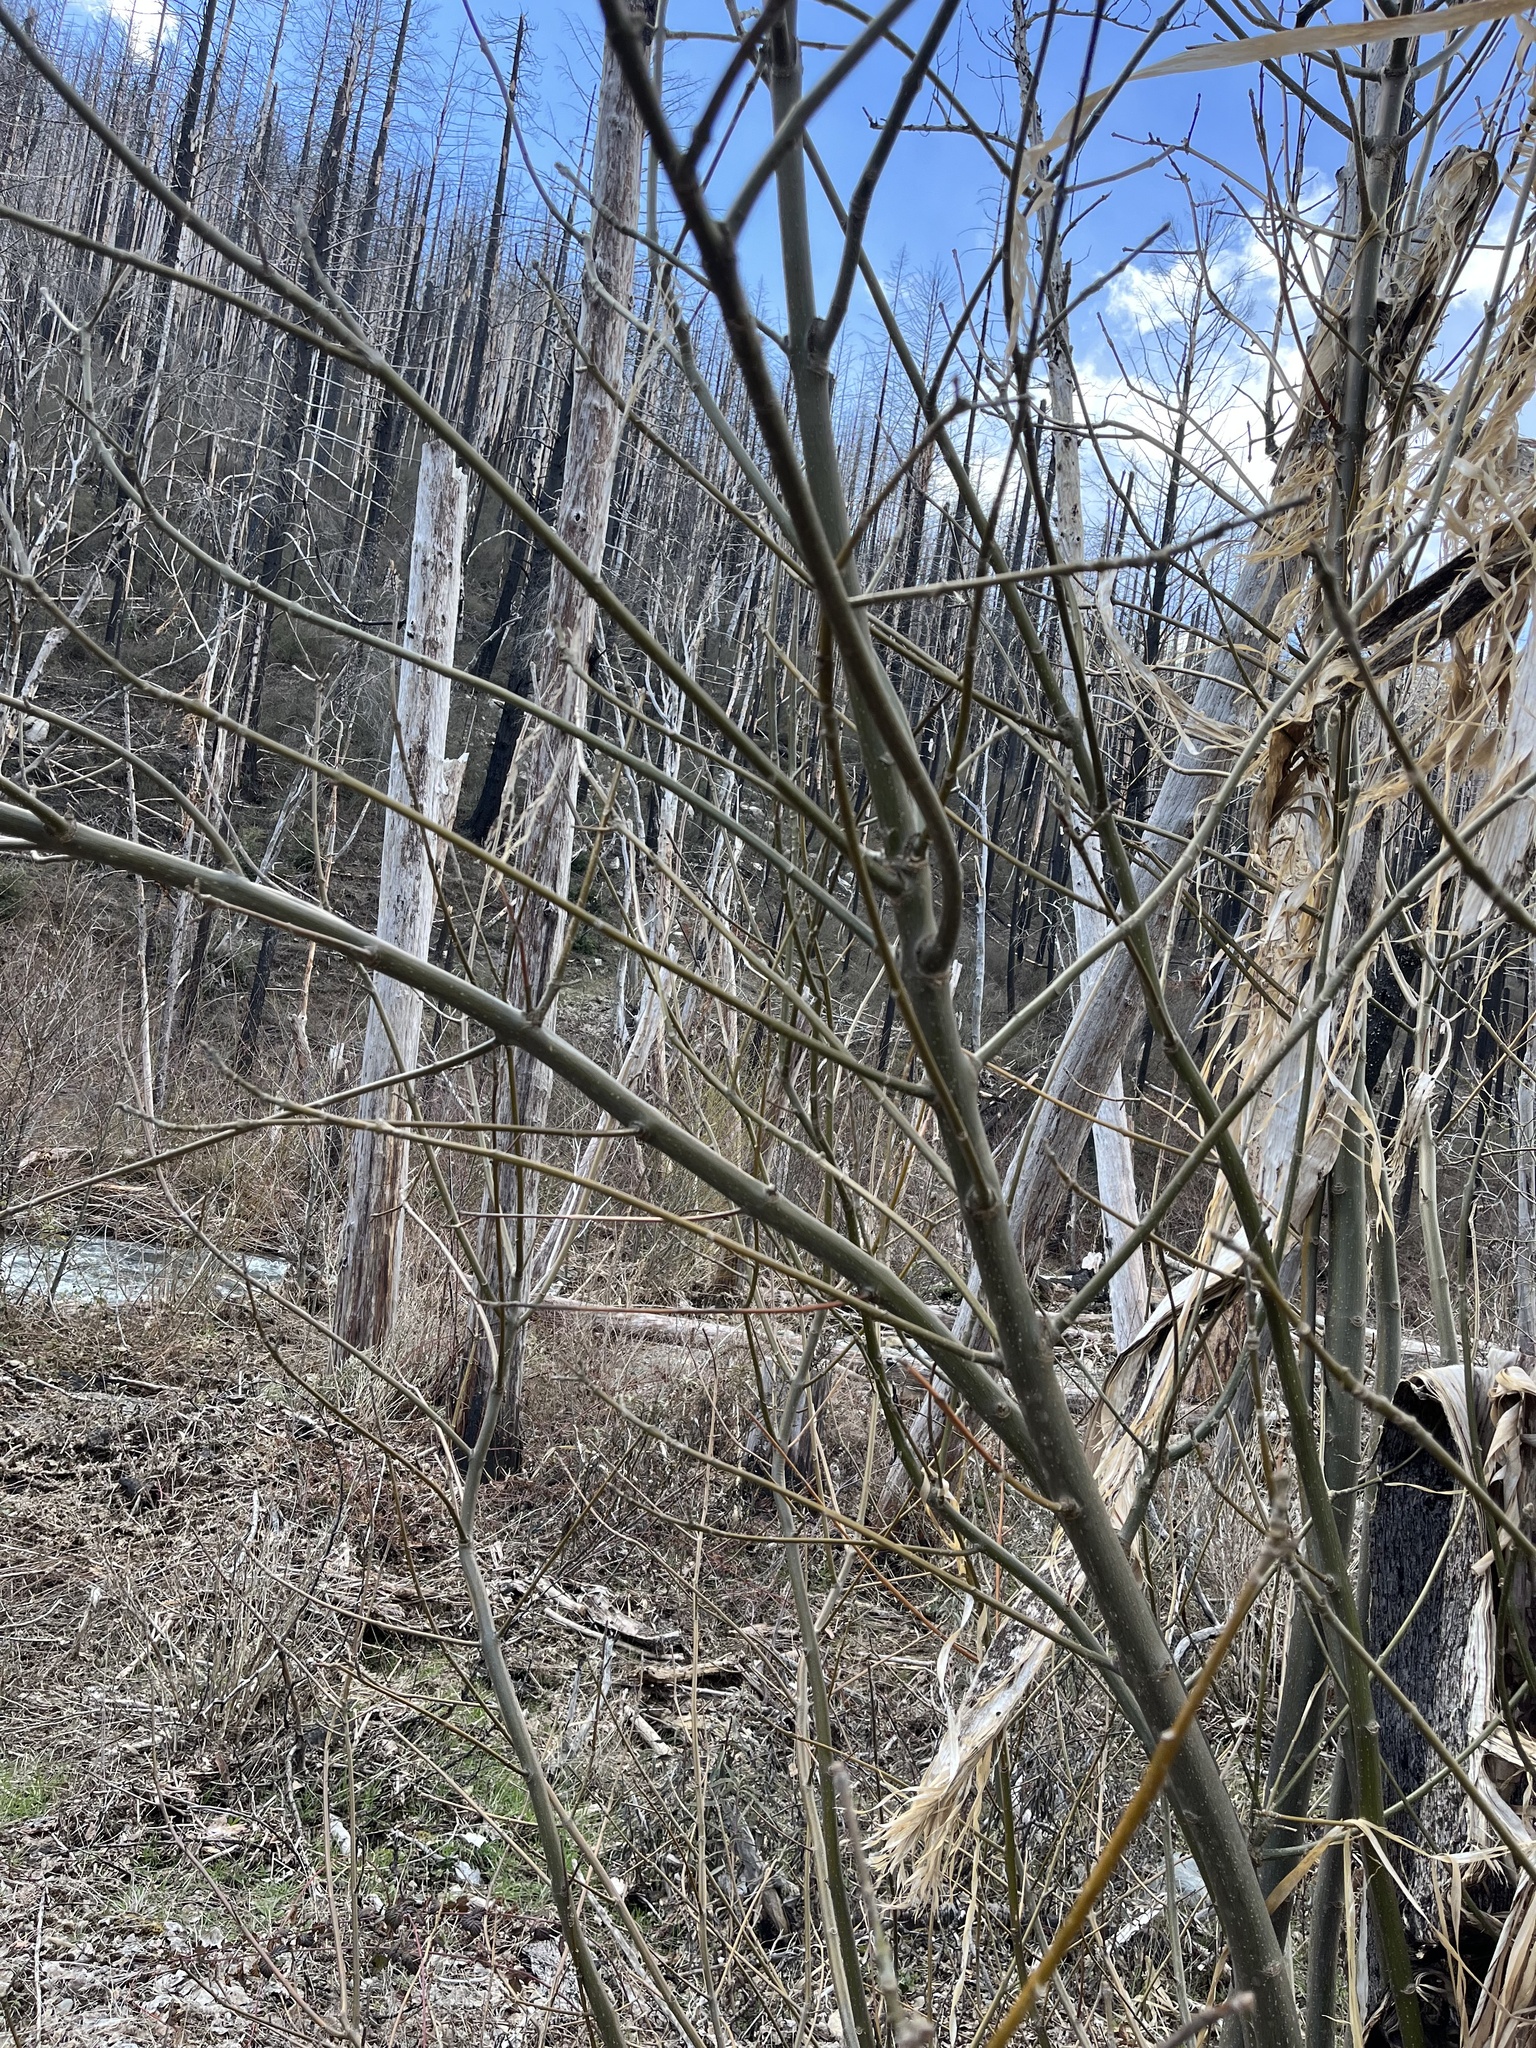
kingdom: Plantae
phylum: Tracheophyta
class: Magnoliopsida
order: Sapindales
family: Sapindaceae
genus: Acer
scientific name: Acer macrophyllum
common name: Oregon maple
